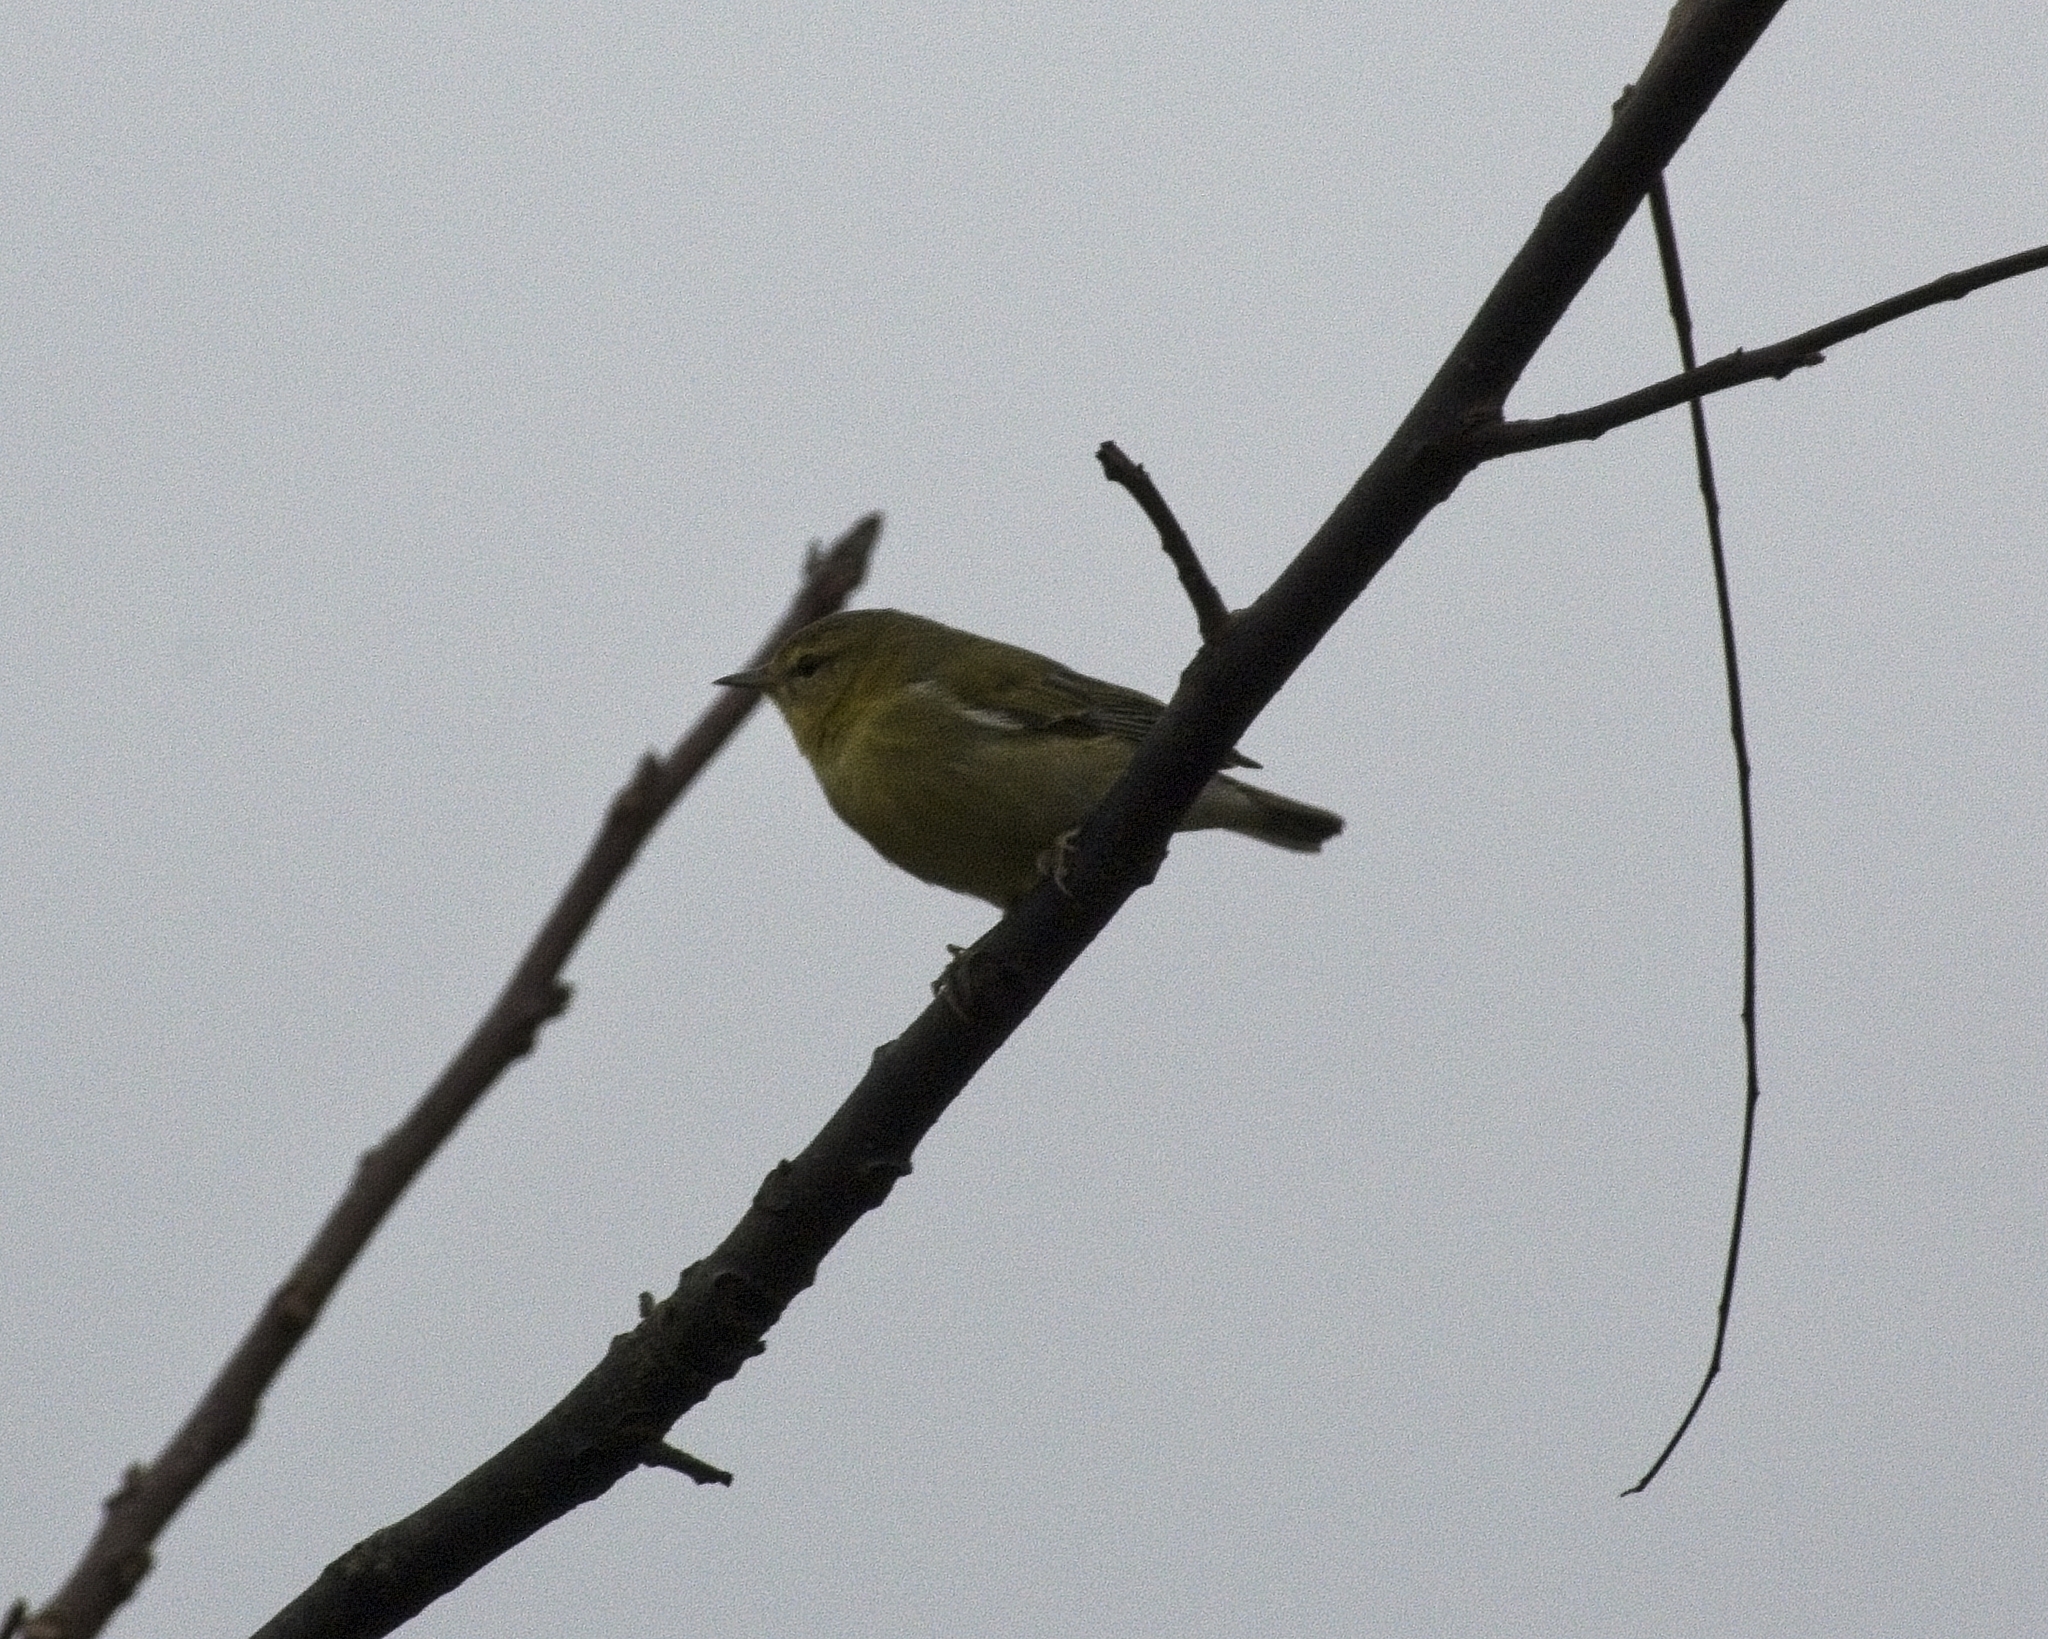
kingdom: Animalia
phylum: Chordata
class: Aves
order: Passeriformes
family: Parulidae
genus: Leiothlypis
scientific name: Leiothlypis peregrina
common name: Tennessee warbler
